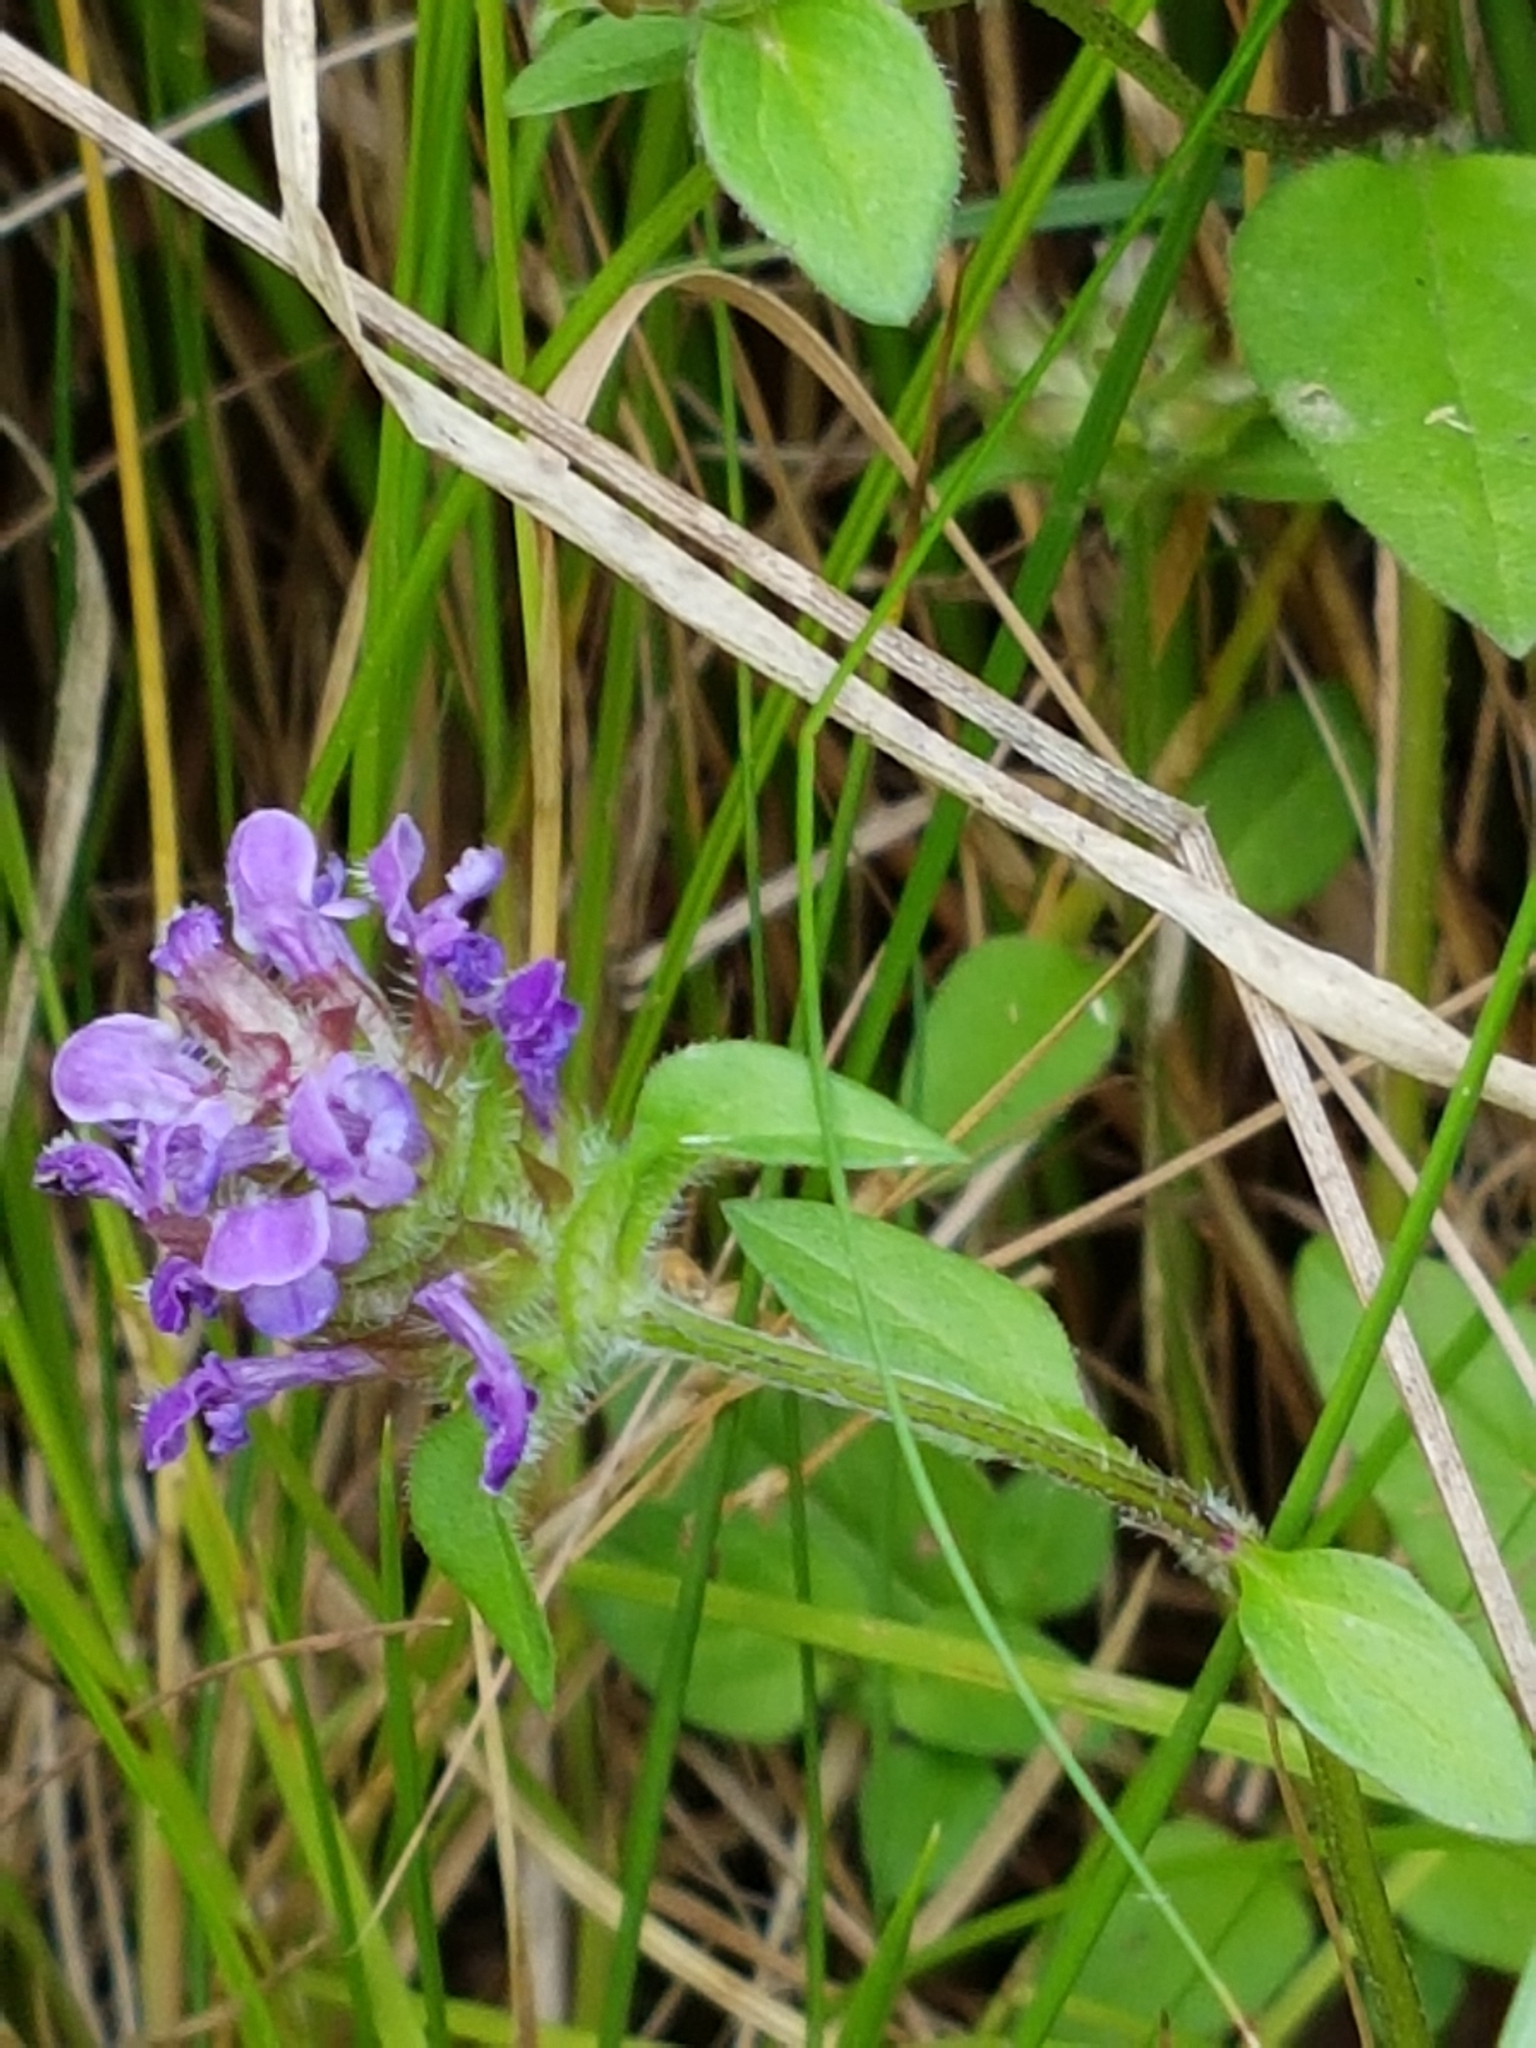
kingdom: Plantae
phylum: Tracheophyta
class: Magnoliopsida
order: Lamiales
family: Lamiaceae
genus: Prunella
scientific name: Prunella vulgaris
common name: Heal-all
